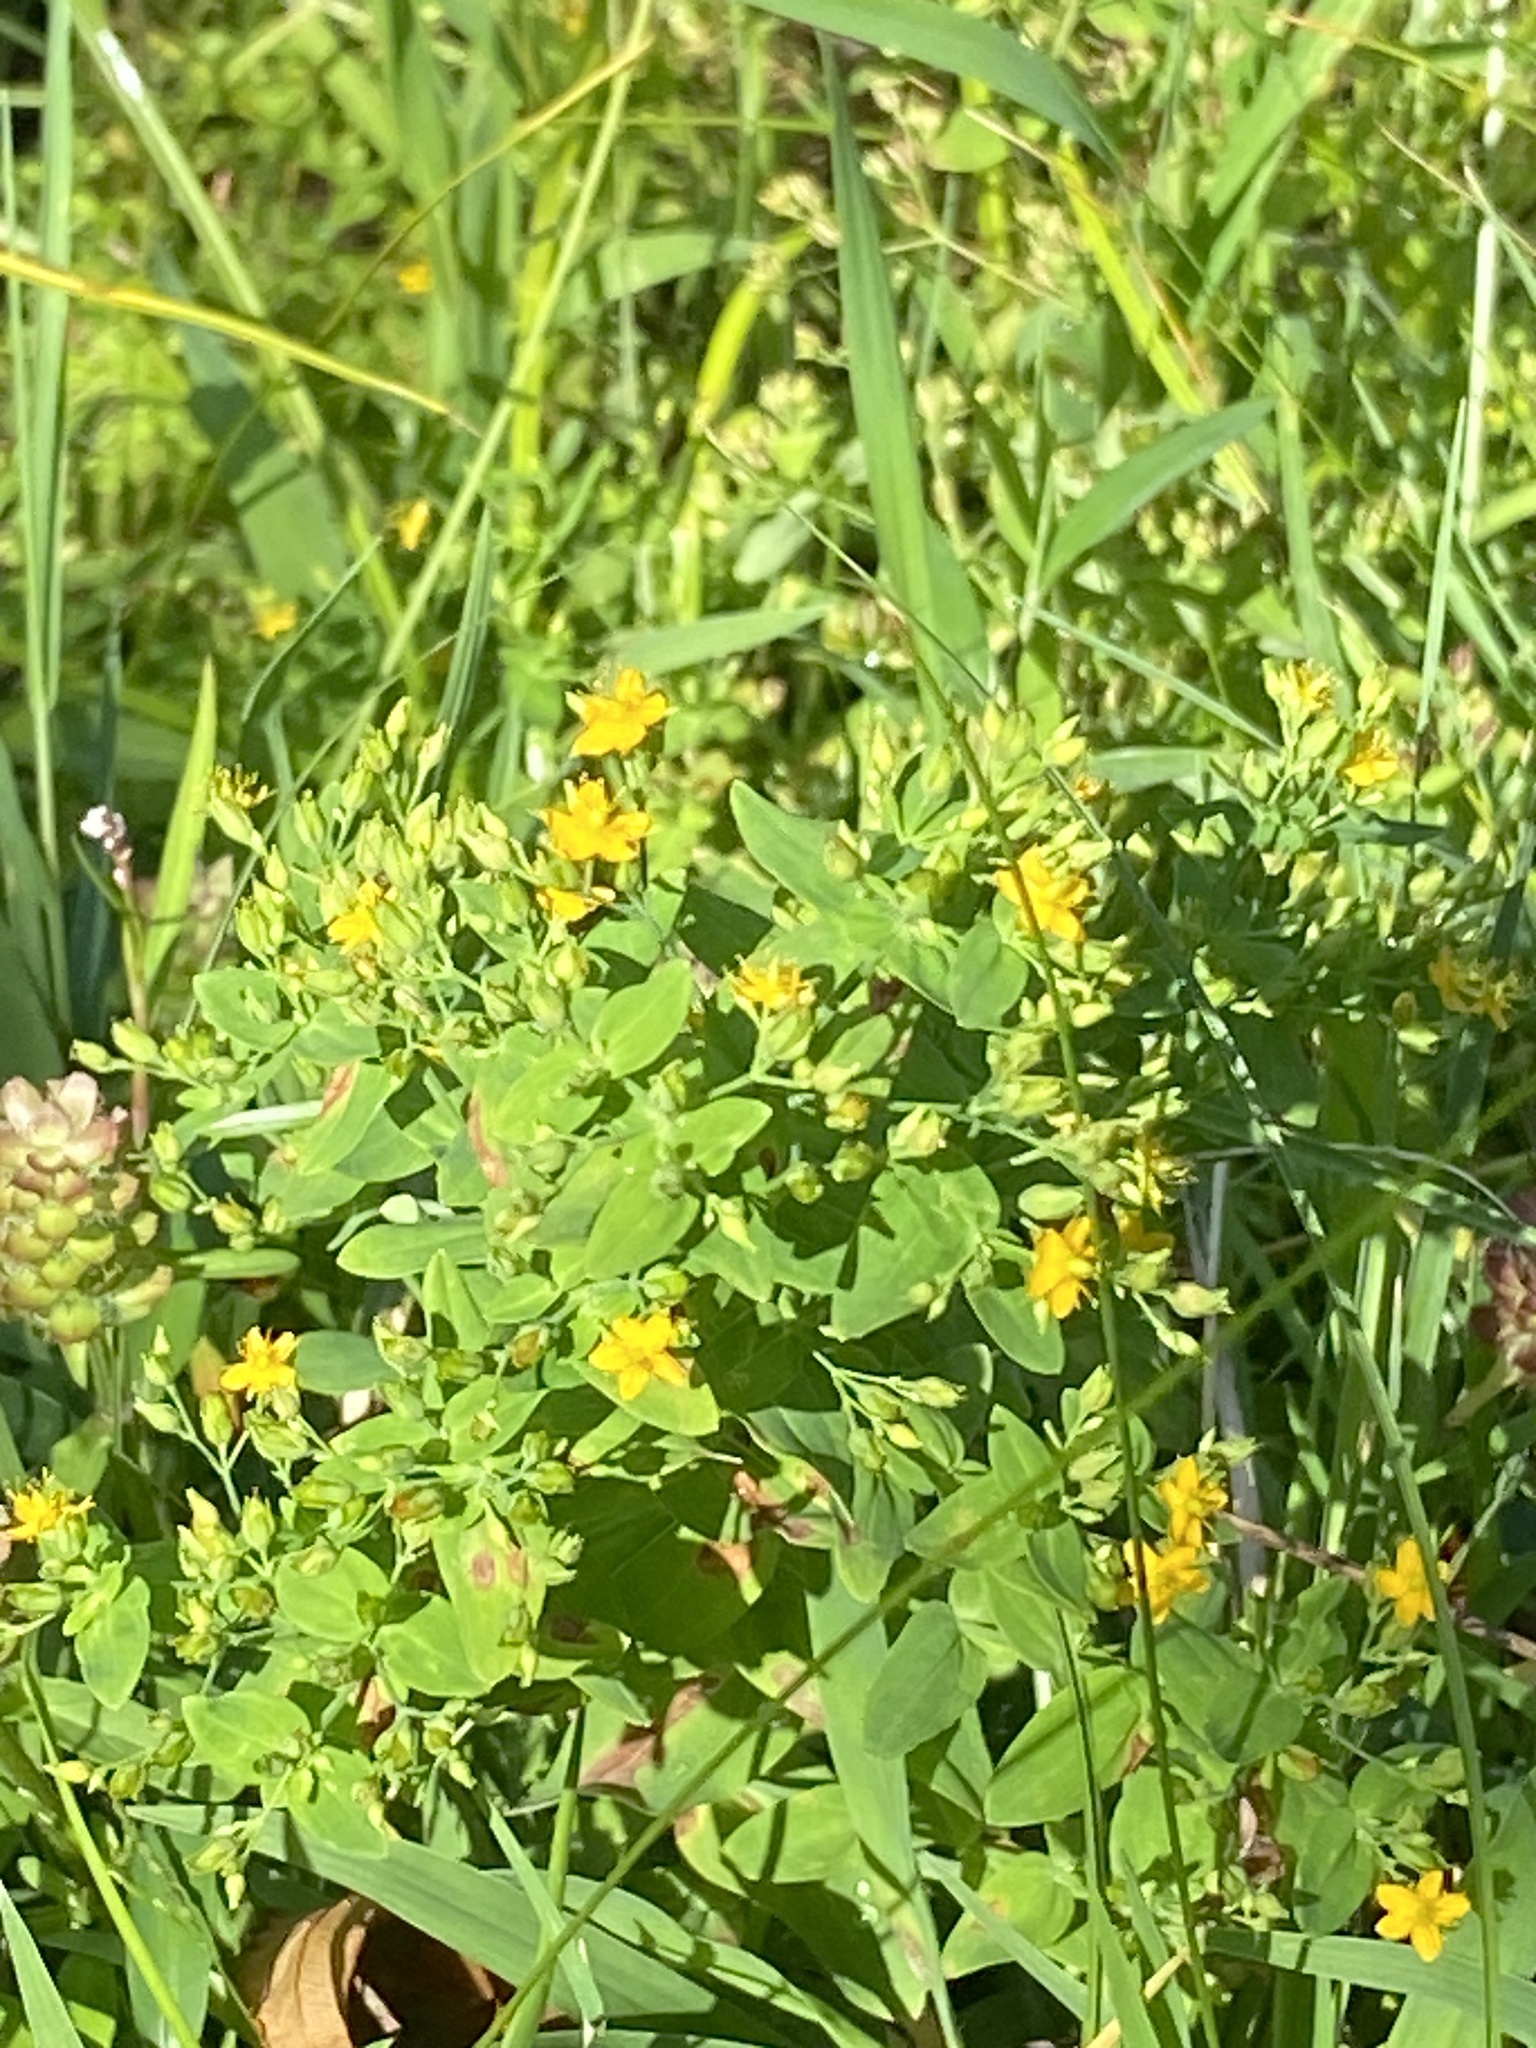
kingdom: Plantae
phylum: Tracheophyta
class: Magnoliopsida
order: Malpighiales
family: Hypericaceae
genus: Hypericum
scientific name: Hypericum mutilum
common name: Dwarf st. john's-wort
